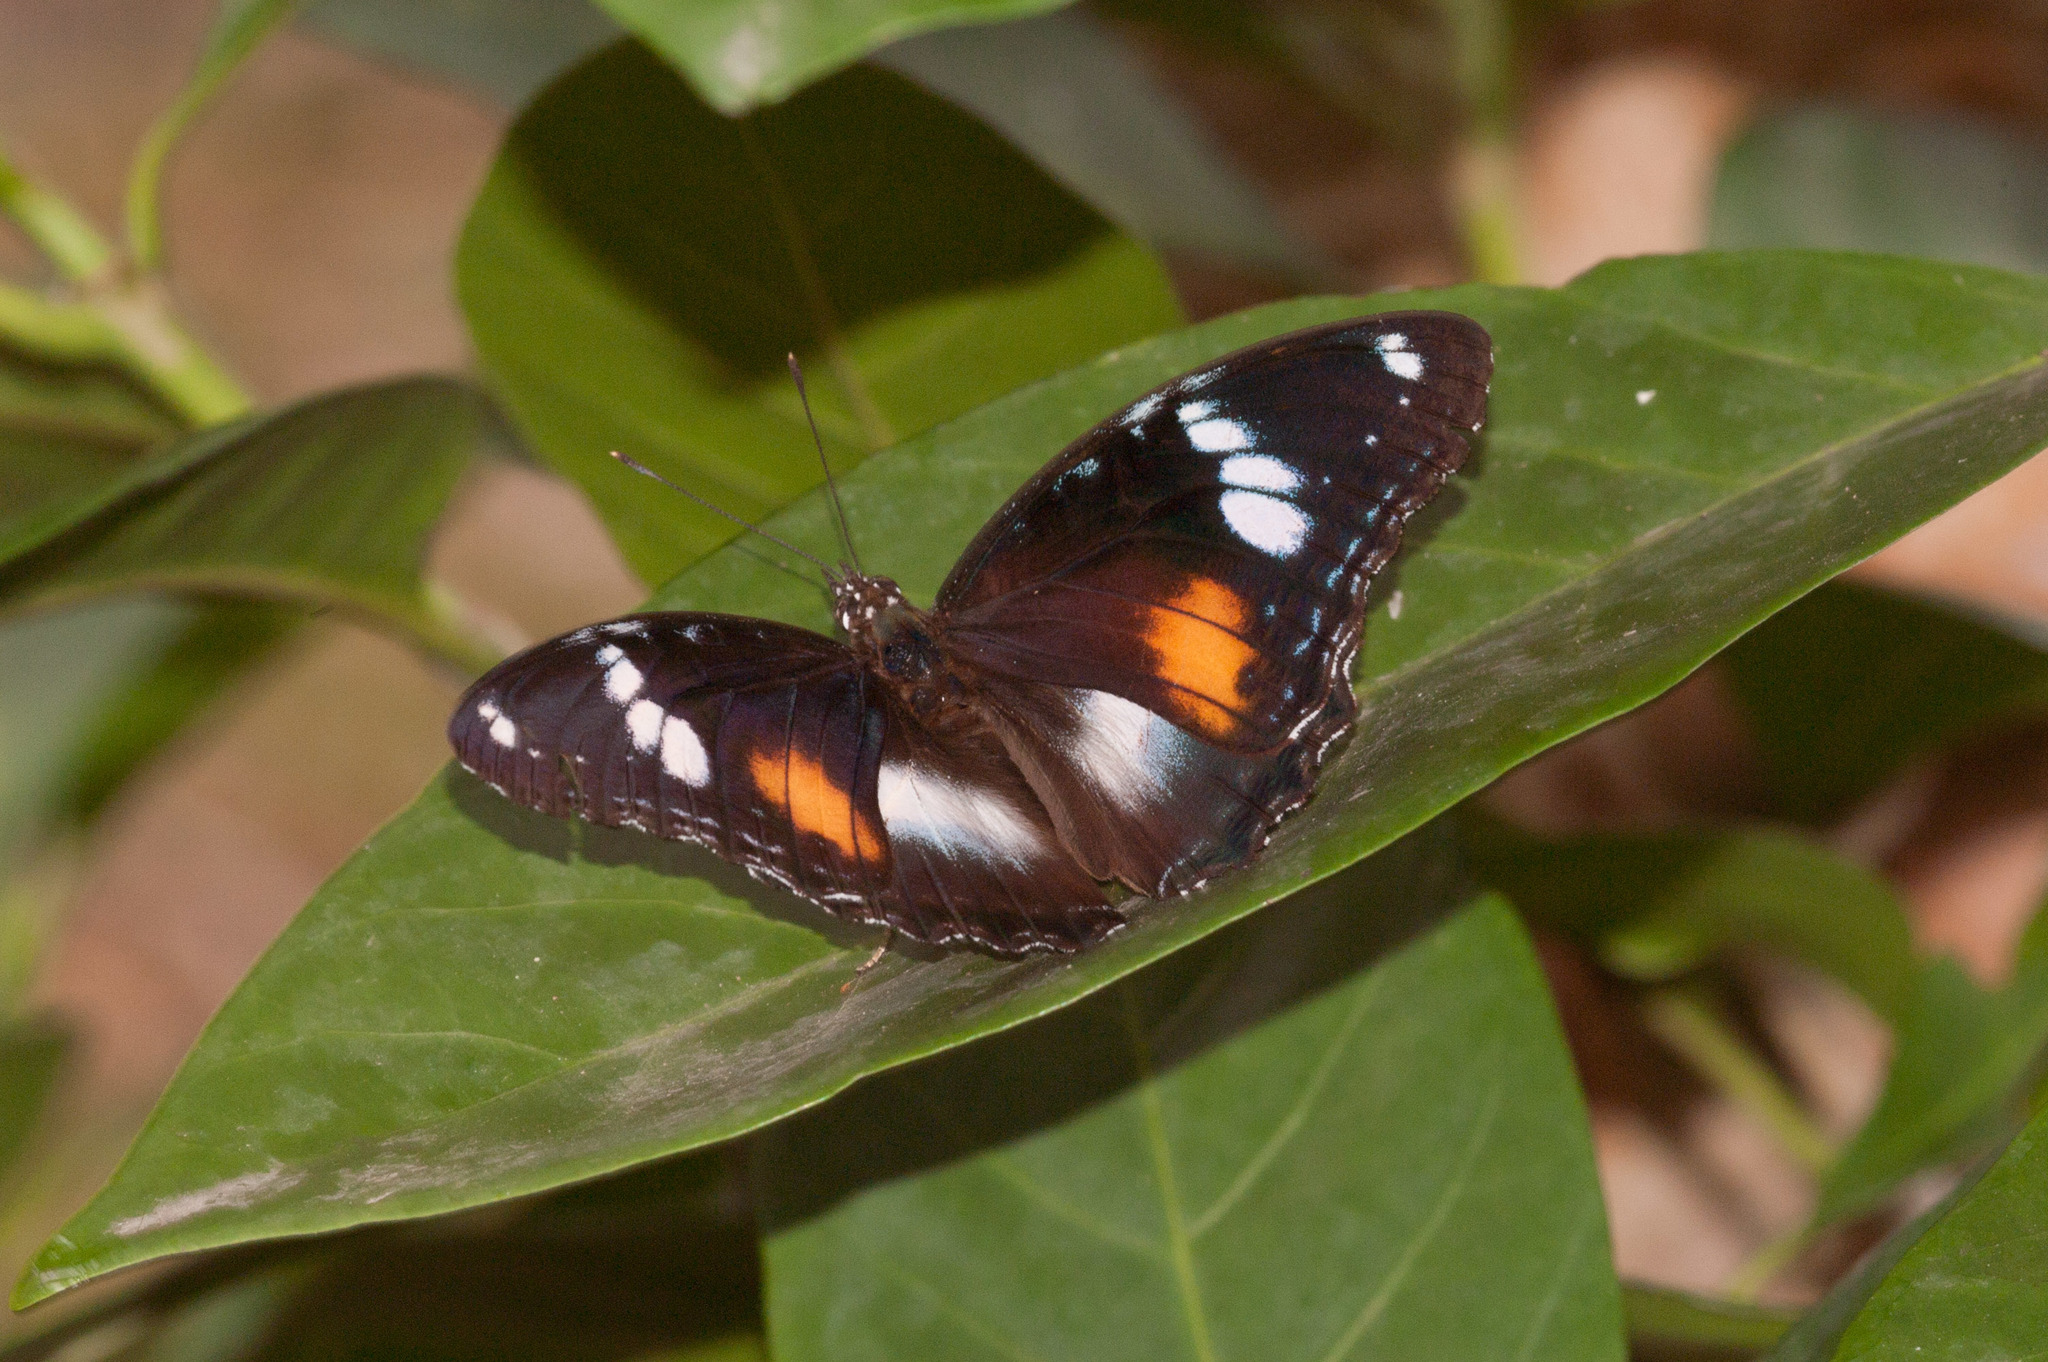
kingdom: Animalia
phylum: Arthropoda
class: Insecta
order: Lepidoptera
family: Nymphalidae
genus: Hypolimnas
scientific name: Hypolimnas bolina
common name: Great eggfly
